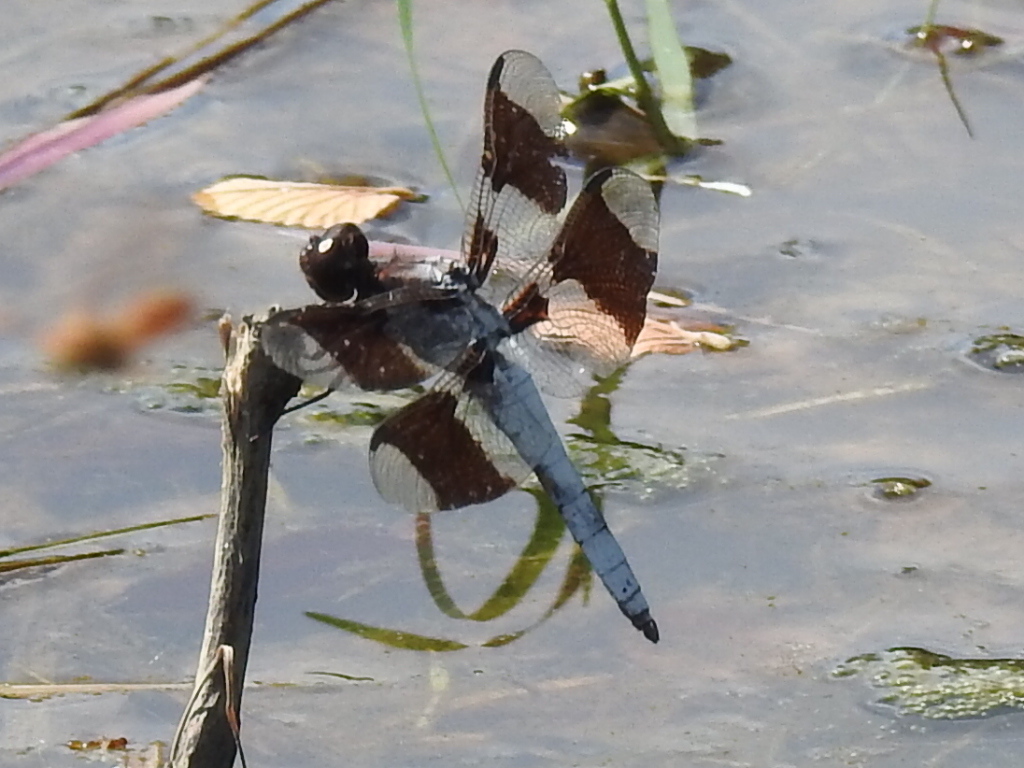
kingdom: Animalia
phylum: Arthropoda
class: Insecta
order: Odonata
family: Libellulidae
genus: Plathemis
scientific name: Plathemis lydia
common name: Common whitetail
